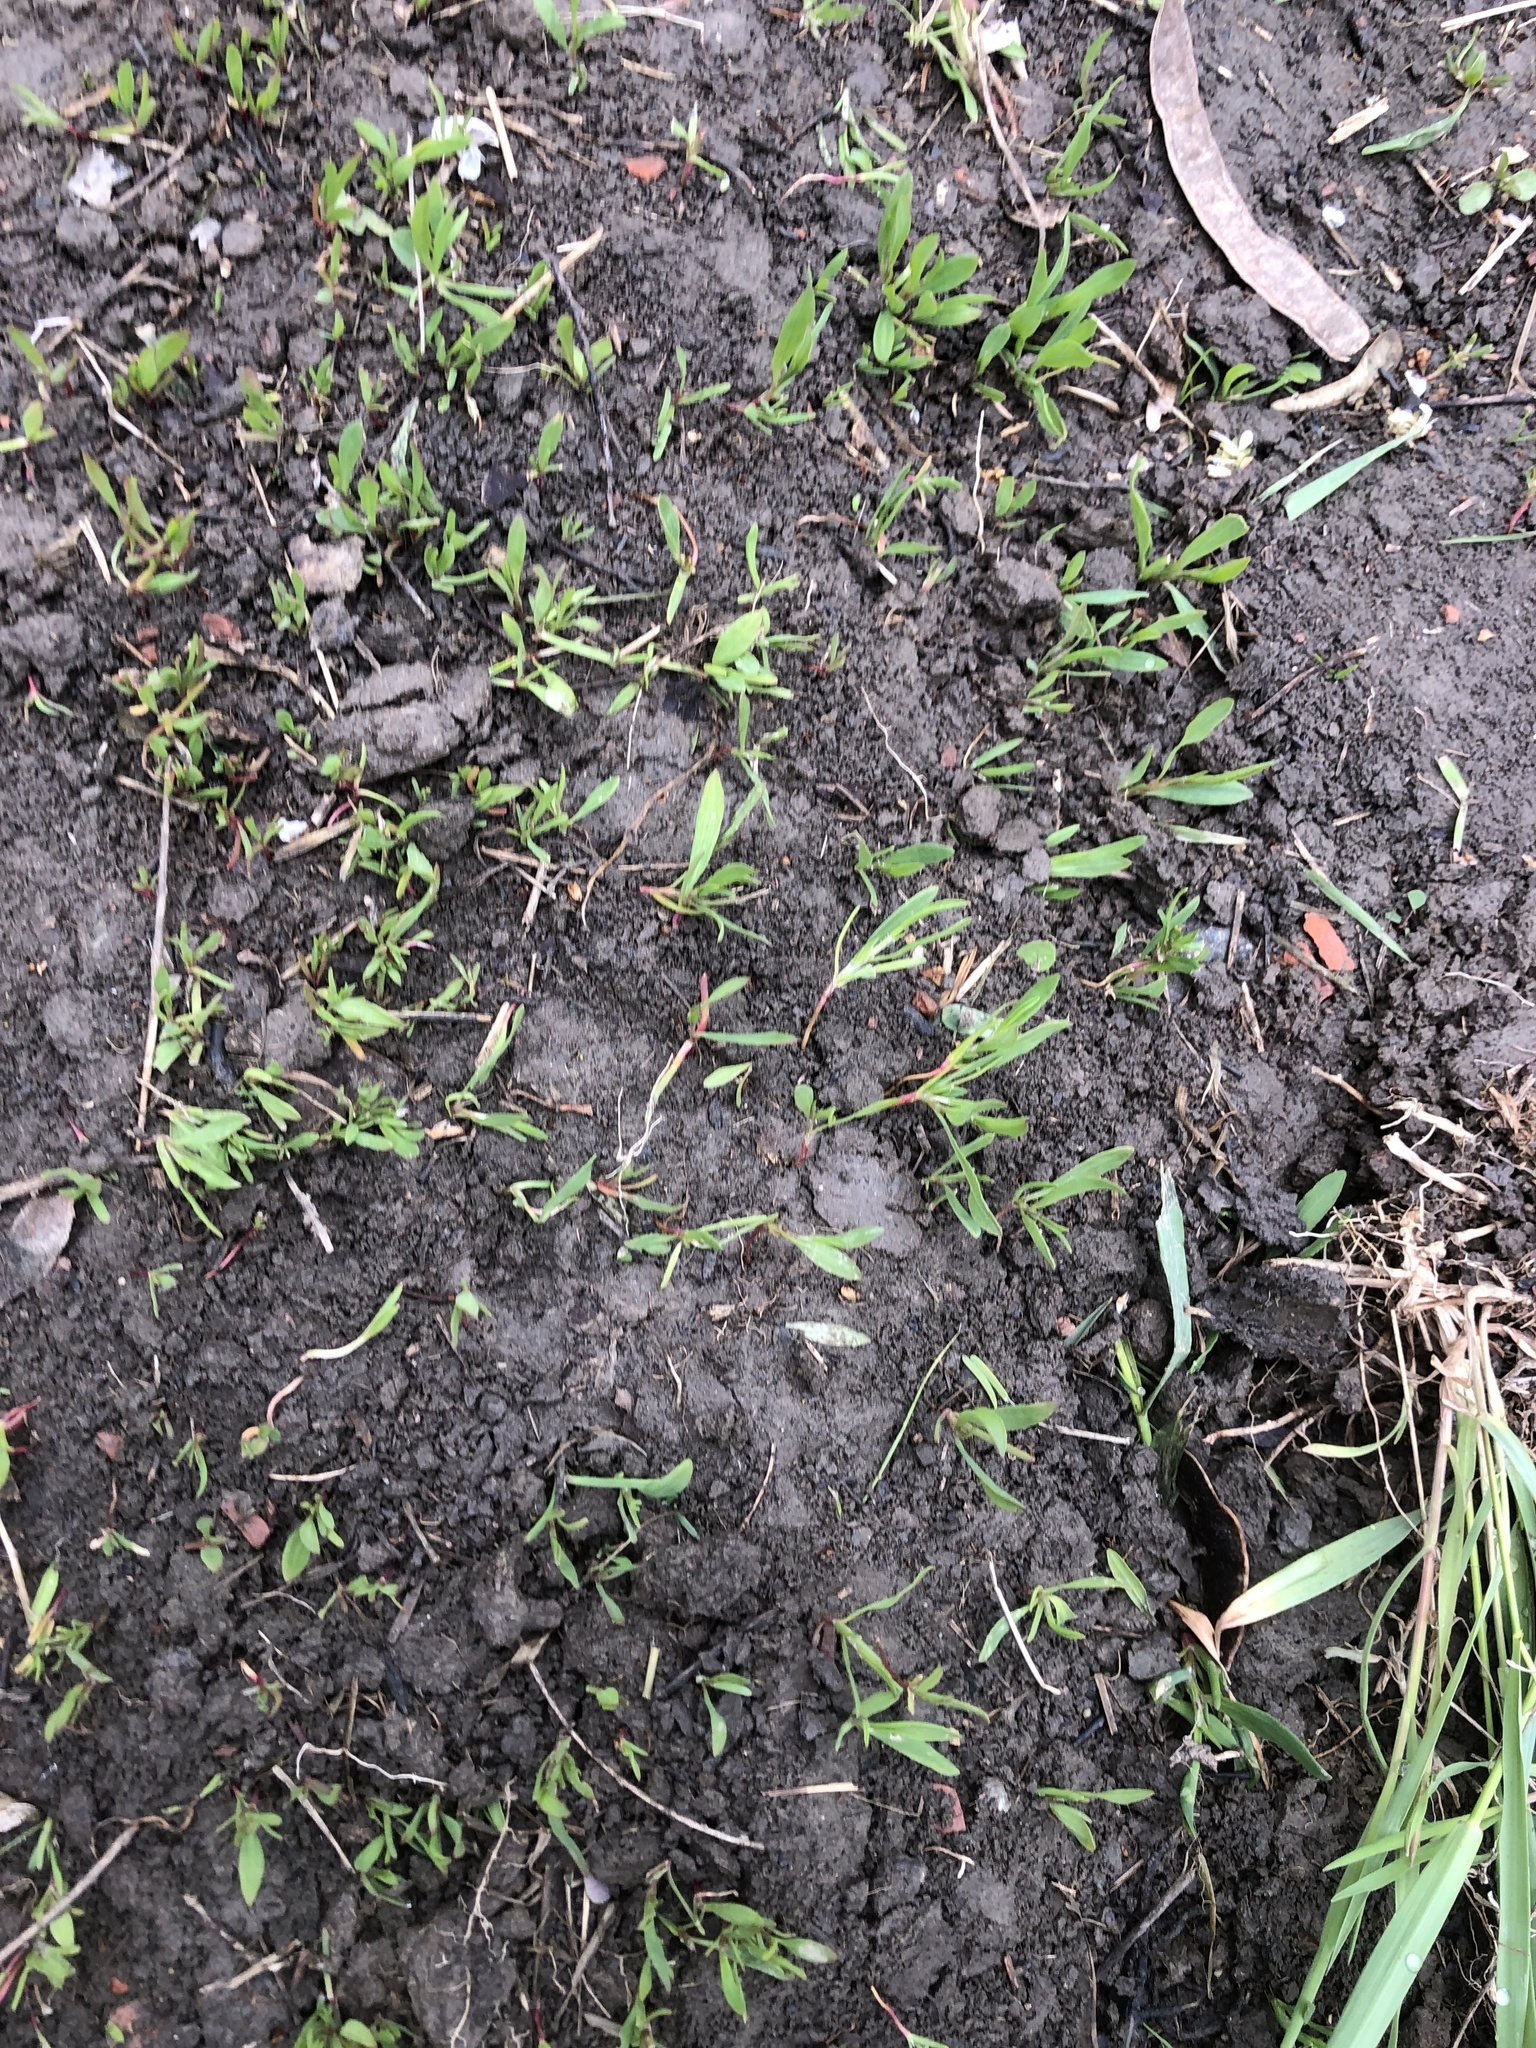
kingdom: Plantae
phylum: Tracheophyta
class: Magnoliopsida
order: Caryophyllales
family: Polygonaceae
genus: Polygonum
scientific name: Polygonum aviculare
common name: Prostrate knotweed
